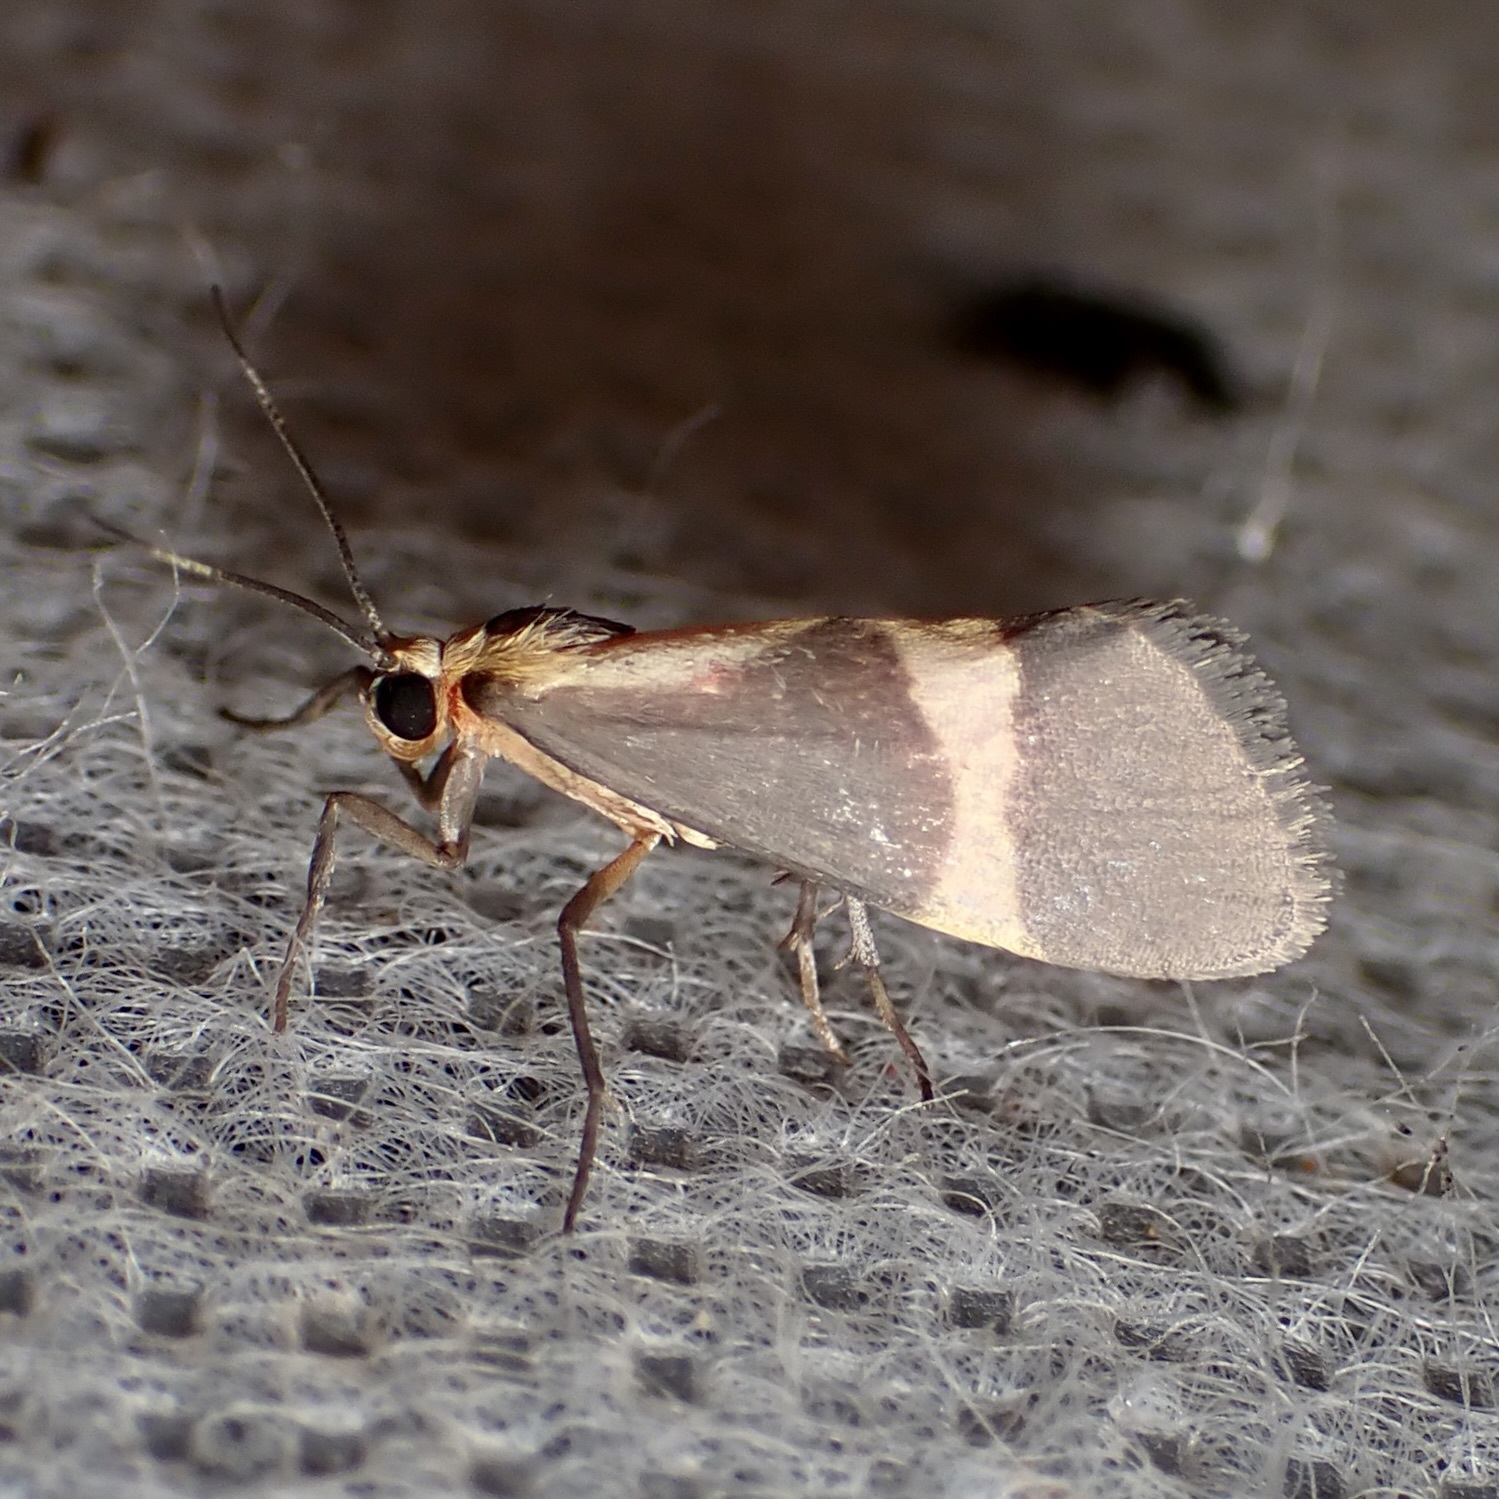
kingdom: Animalia
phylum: Arthropoda
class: Insecta
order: Lepidoptera
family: Erebidae
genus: Cisthene
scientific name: Cisthene tenuifascia
